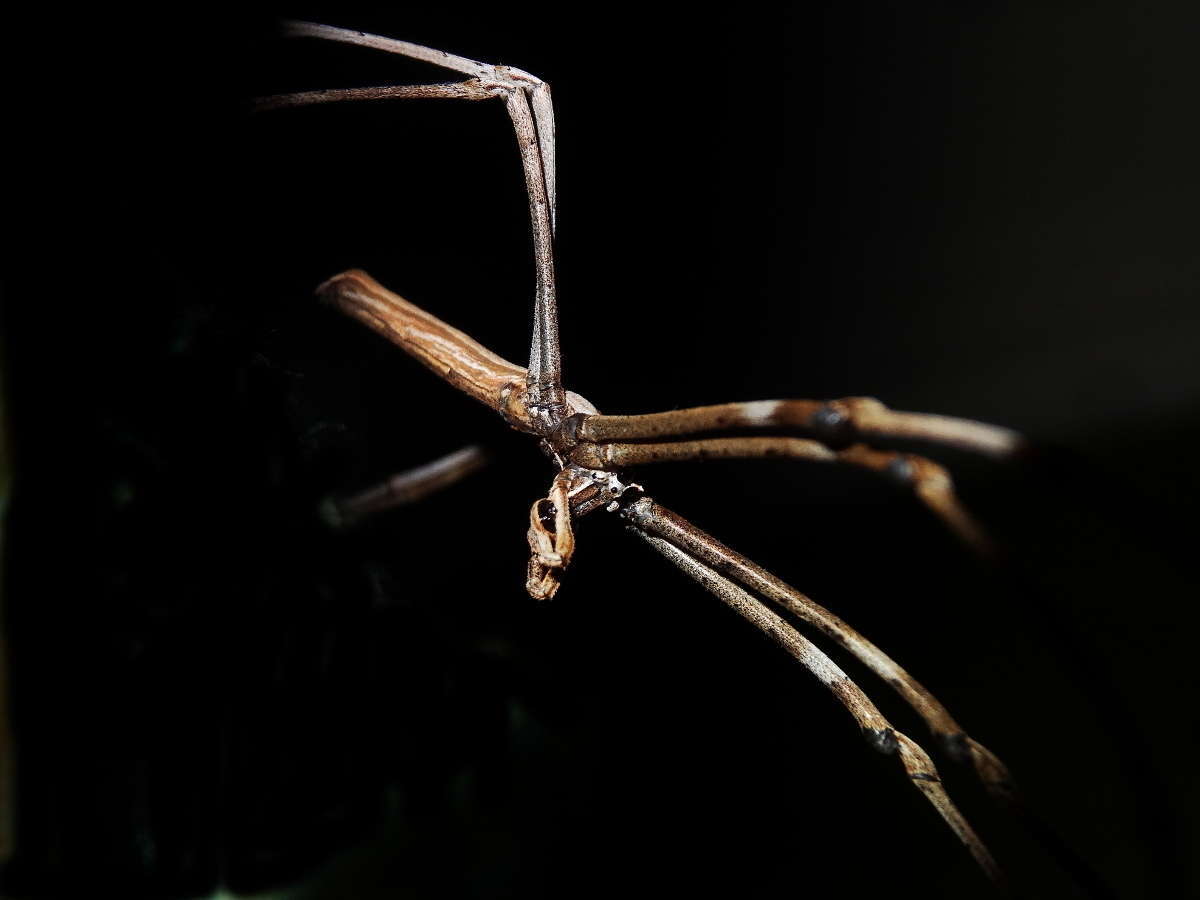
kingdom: Animalia
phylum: Arthropoda
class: Arachnida
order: Araneae
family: Deinopidae
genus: Deinopis
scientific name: Deinopis subrufa
